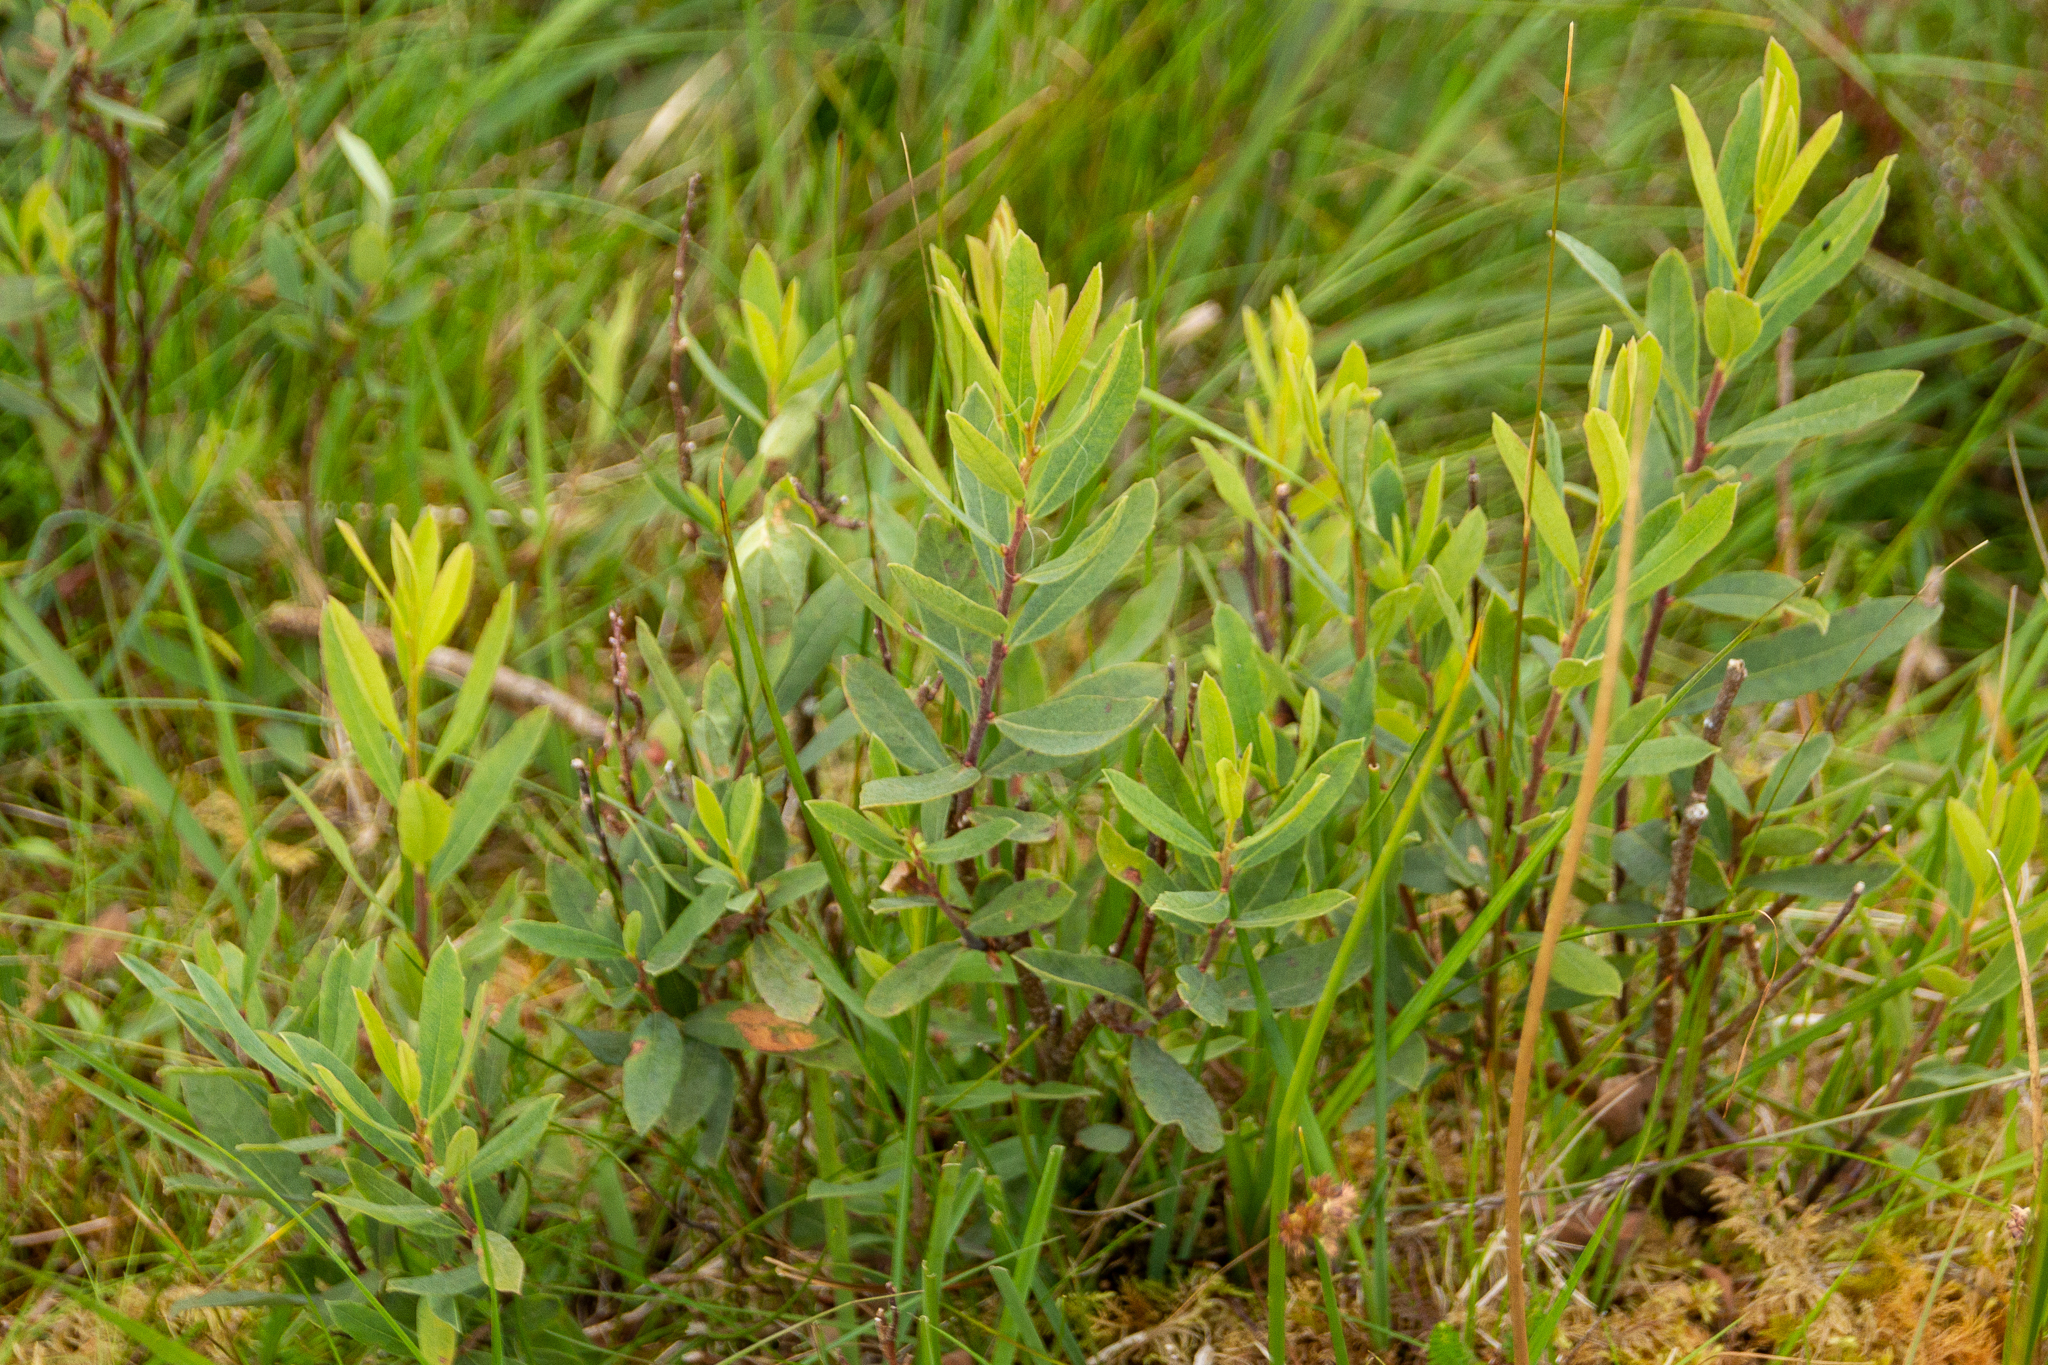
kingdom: Plantae
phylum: Tracheophyta
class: Magnoliopsida
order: Fagales
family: Myricaceae
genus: Myrica
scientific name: Myrica gale
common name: Sweet gale
